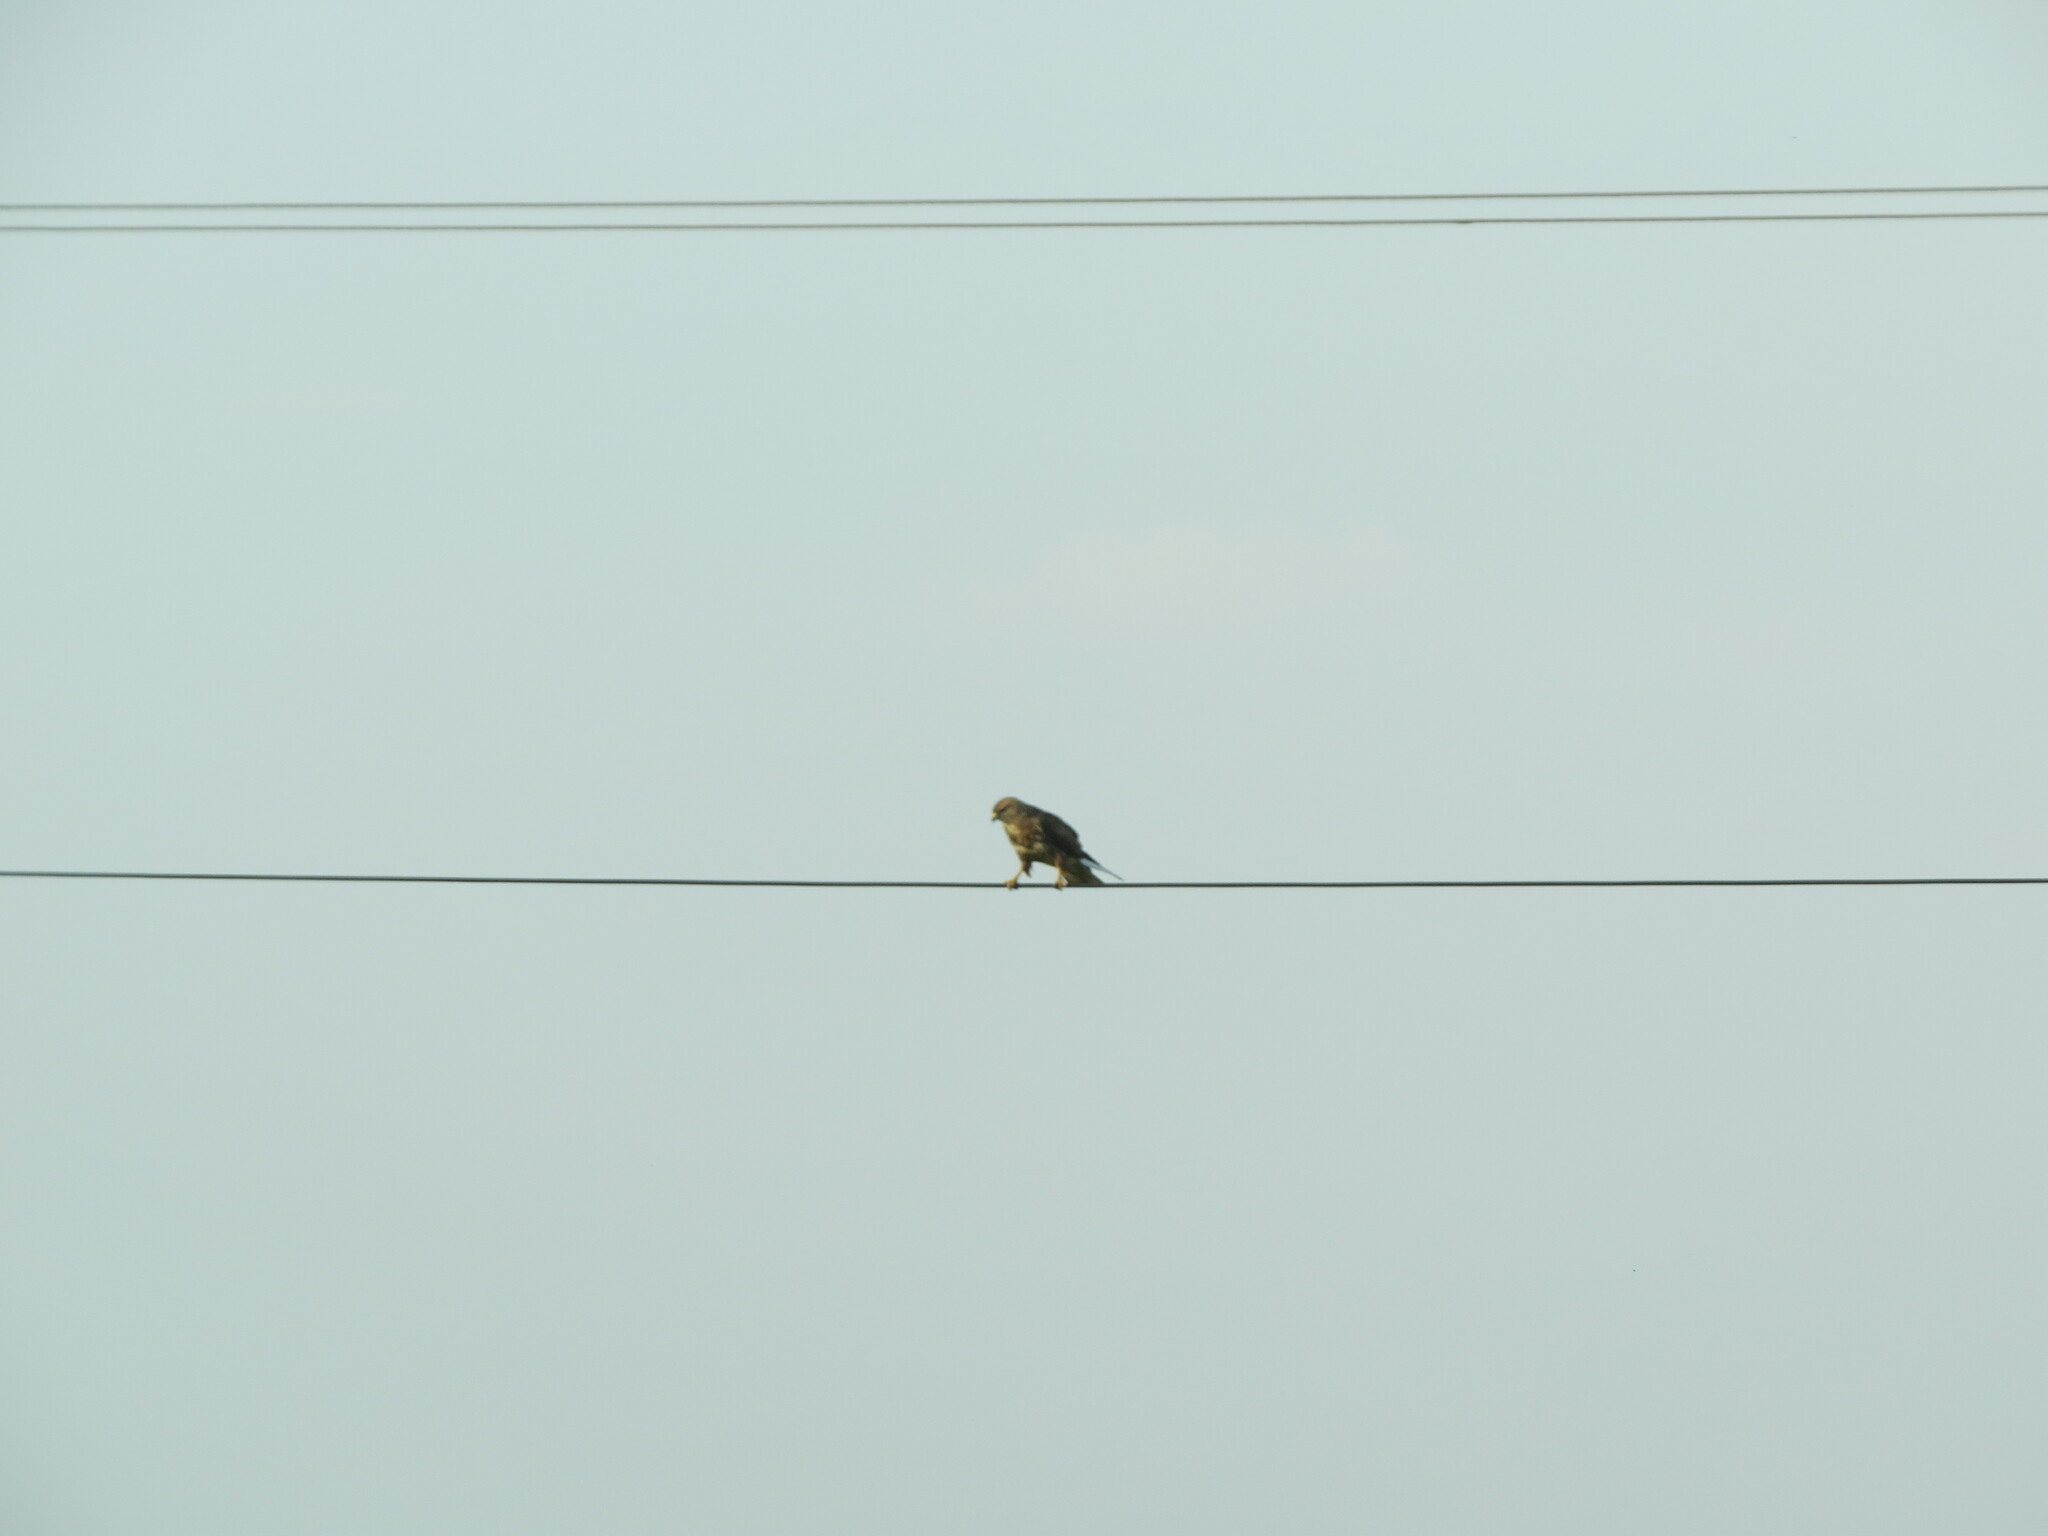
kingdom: Animalia
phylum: Chordata
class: Aves
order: Accipitriformes
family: Accipitridae
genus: Buteo
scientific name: Buteo buteo
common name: Common buzzard
